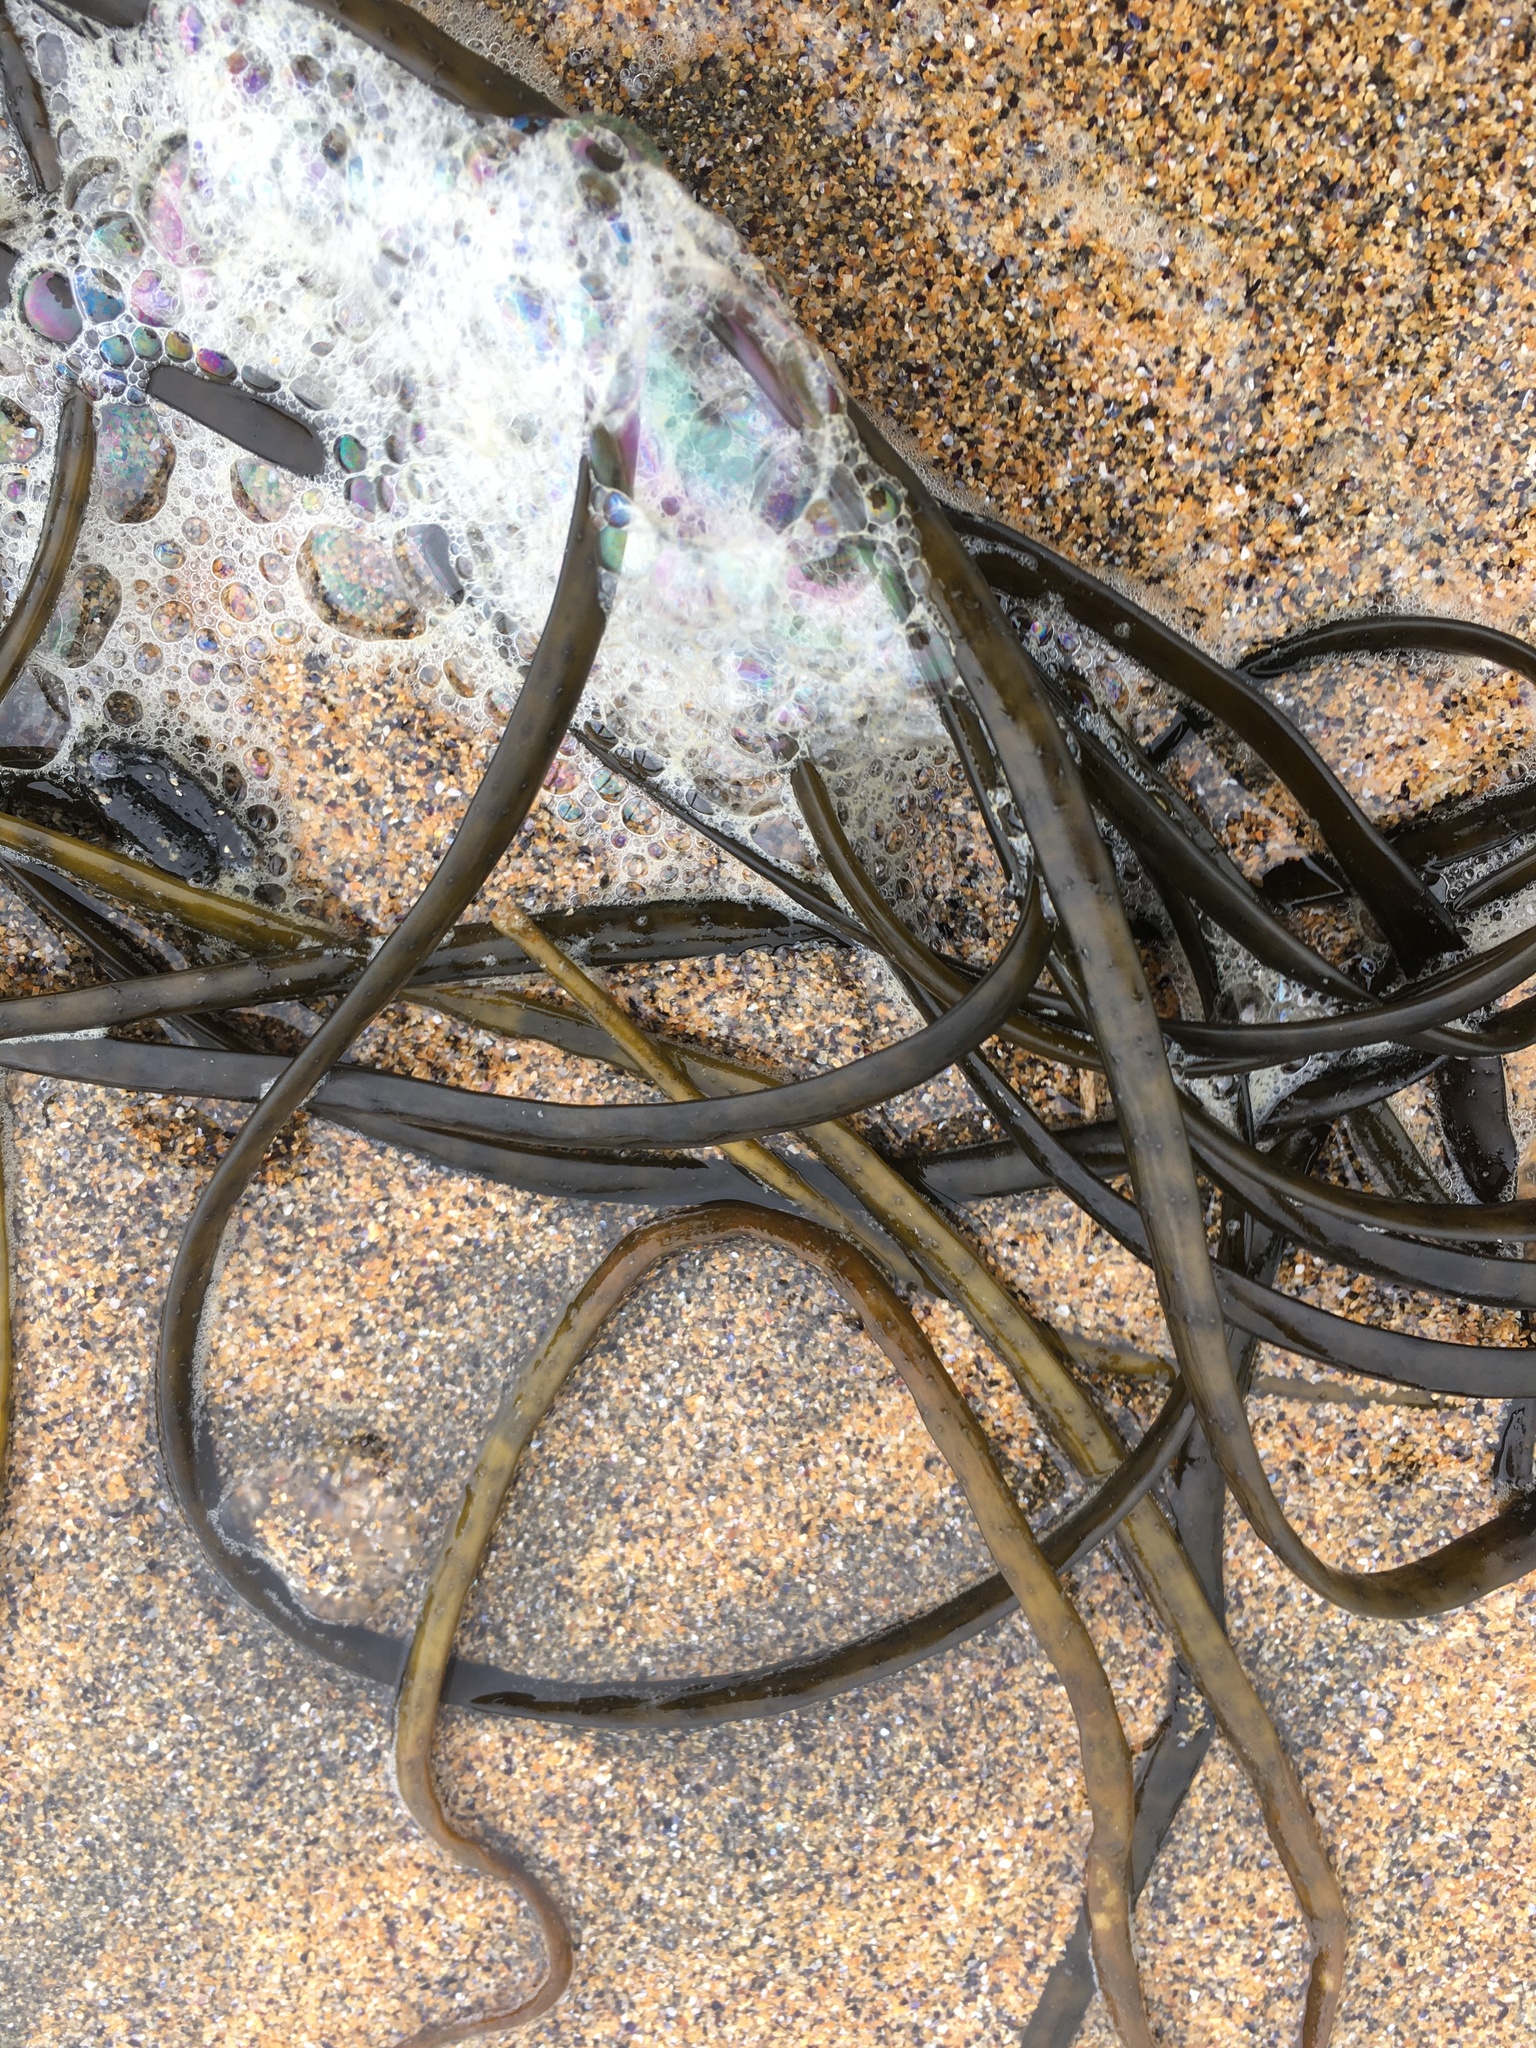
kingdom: Chromista
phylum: Ochrophyta
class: Phaeophyceae
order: Fucales
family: Himanthaliaceae
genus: Himanthalia
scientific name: Himanthalia elongata
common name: Sea-thong
